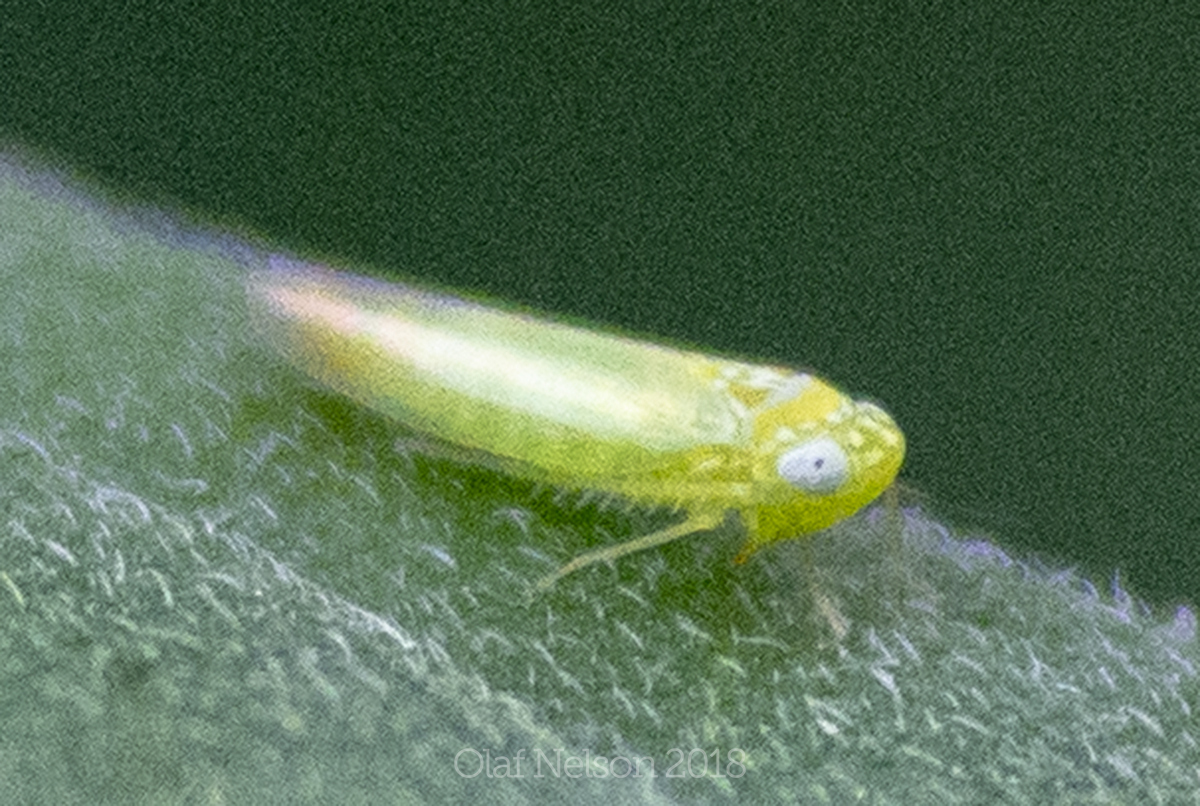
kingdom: Animalia
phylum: Arthropoda
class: Insecta
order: Hemiptera
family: Cicadellidae
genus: Empoasca
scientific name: Empoasca fabae
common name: Potato leafhopper
